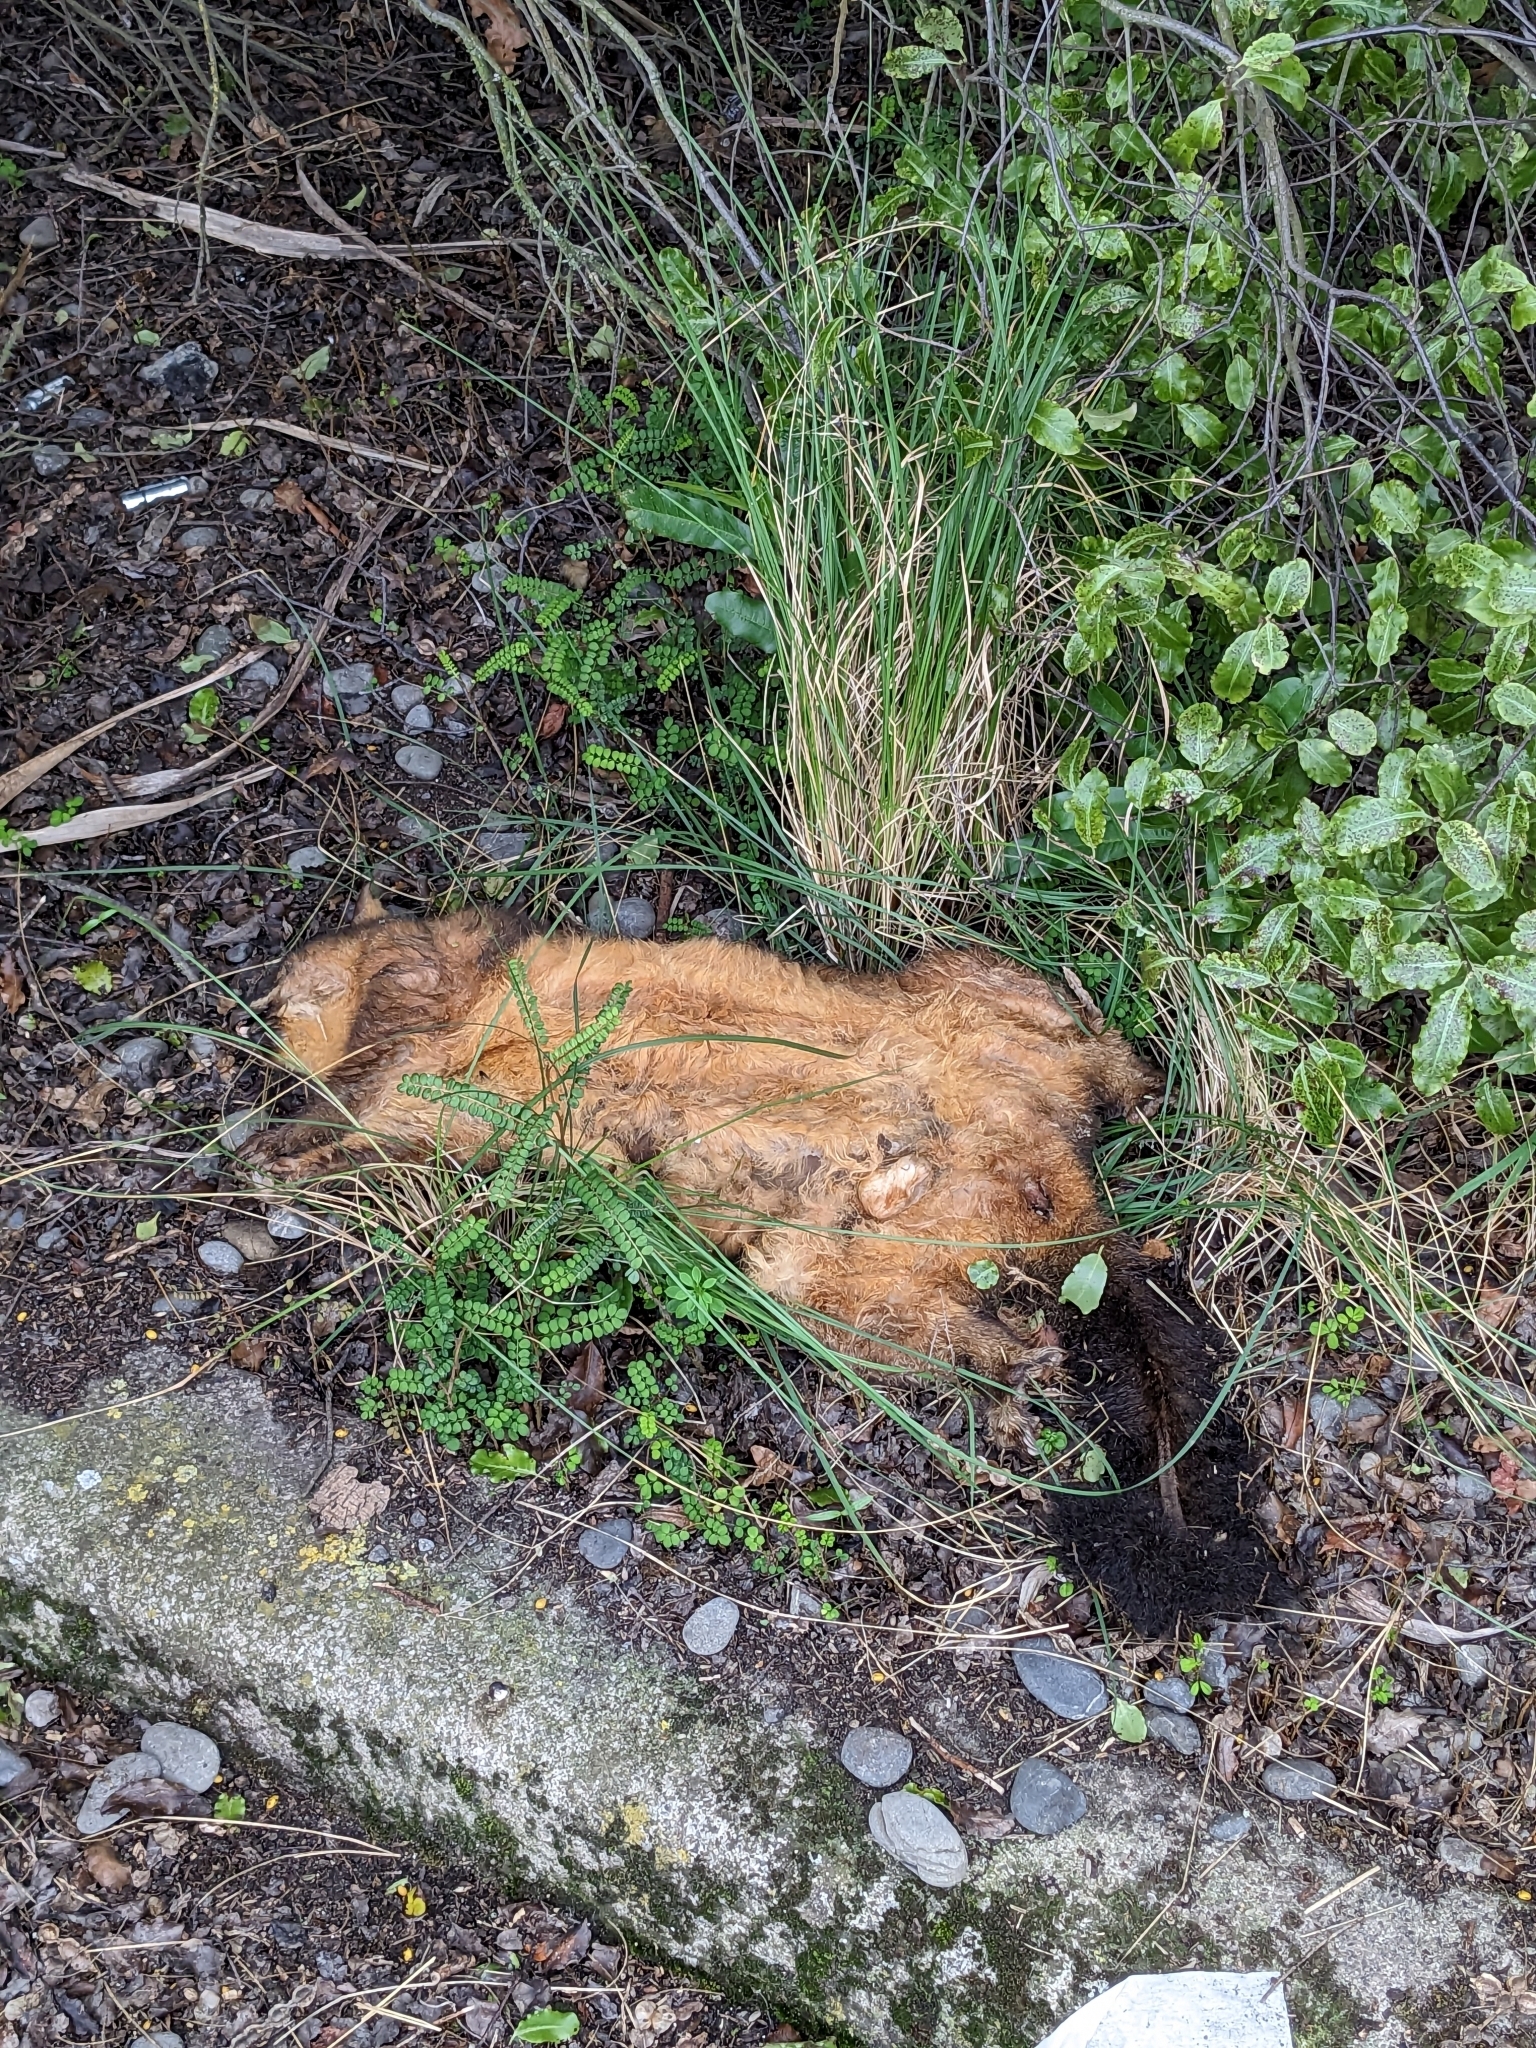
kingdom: Animalia
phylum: Chordata
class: Mammalia
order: Diprotodontia
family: Phalangeridae
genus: Trichosurus
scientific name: Trichosurus vulpecula
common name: Common brushtail
